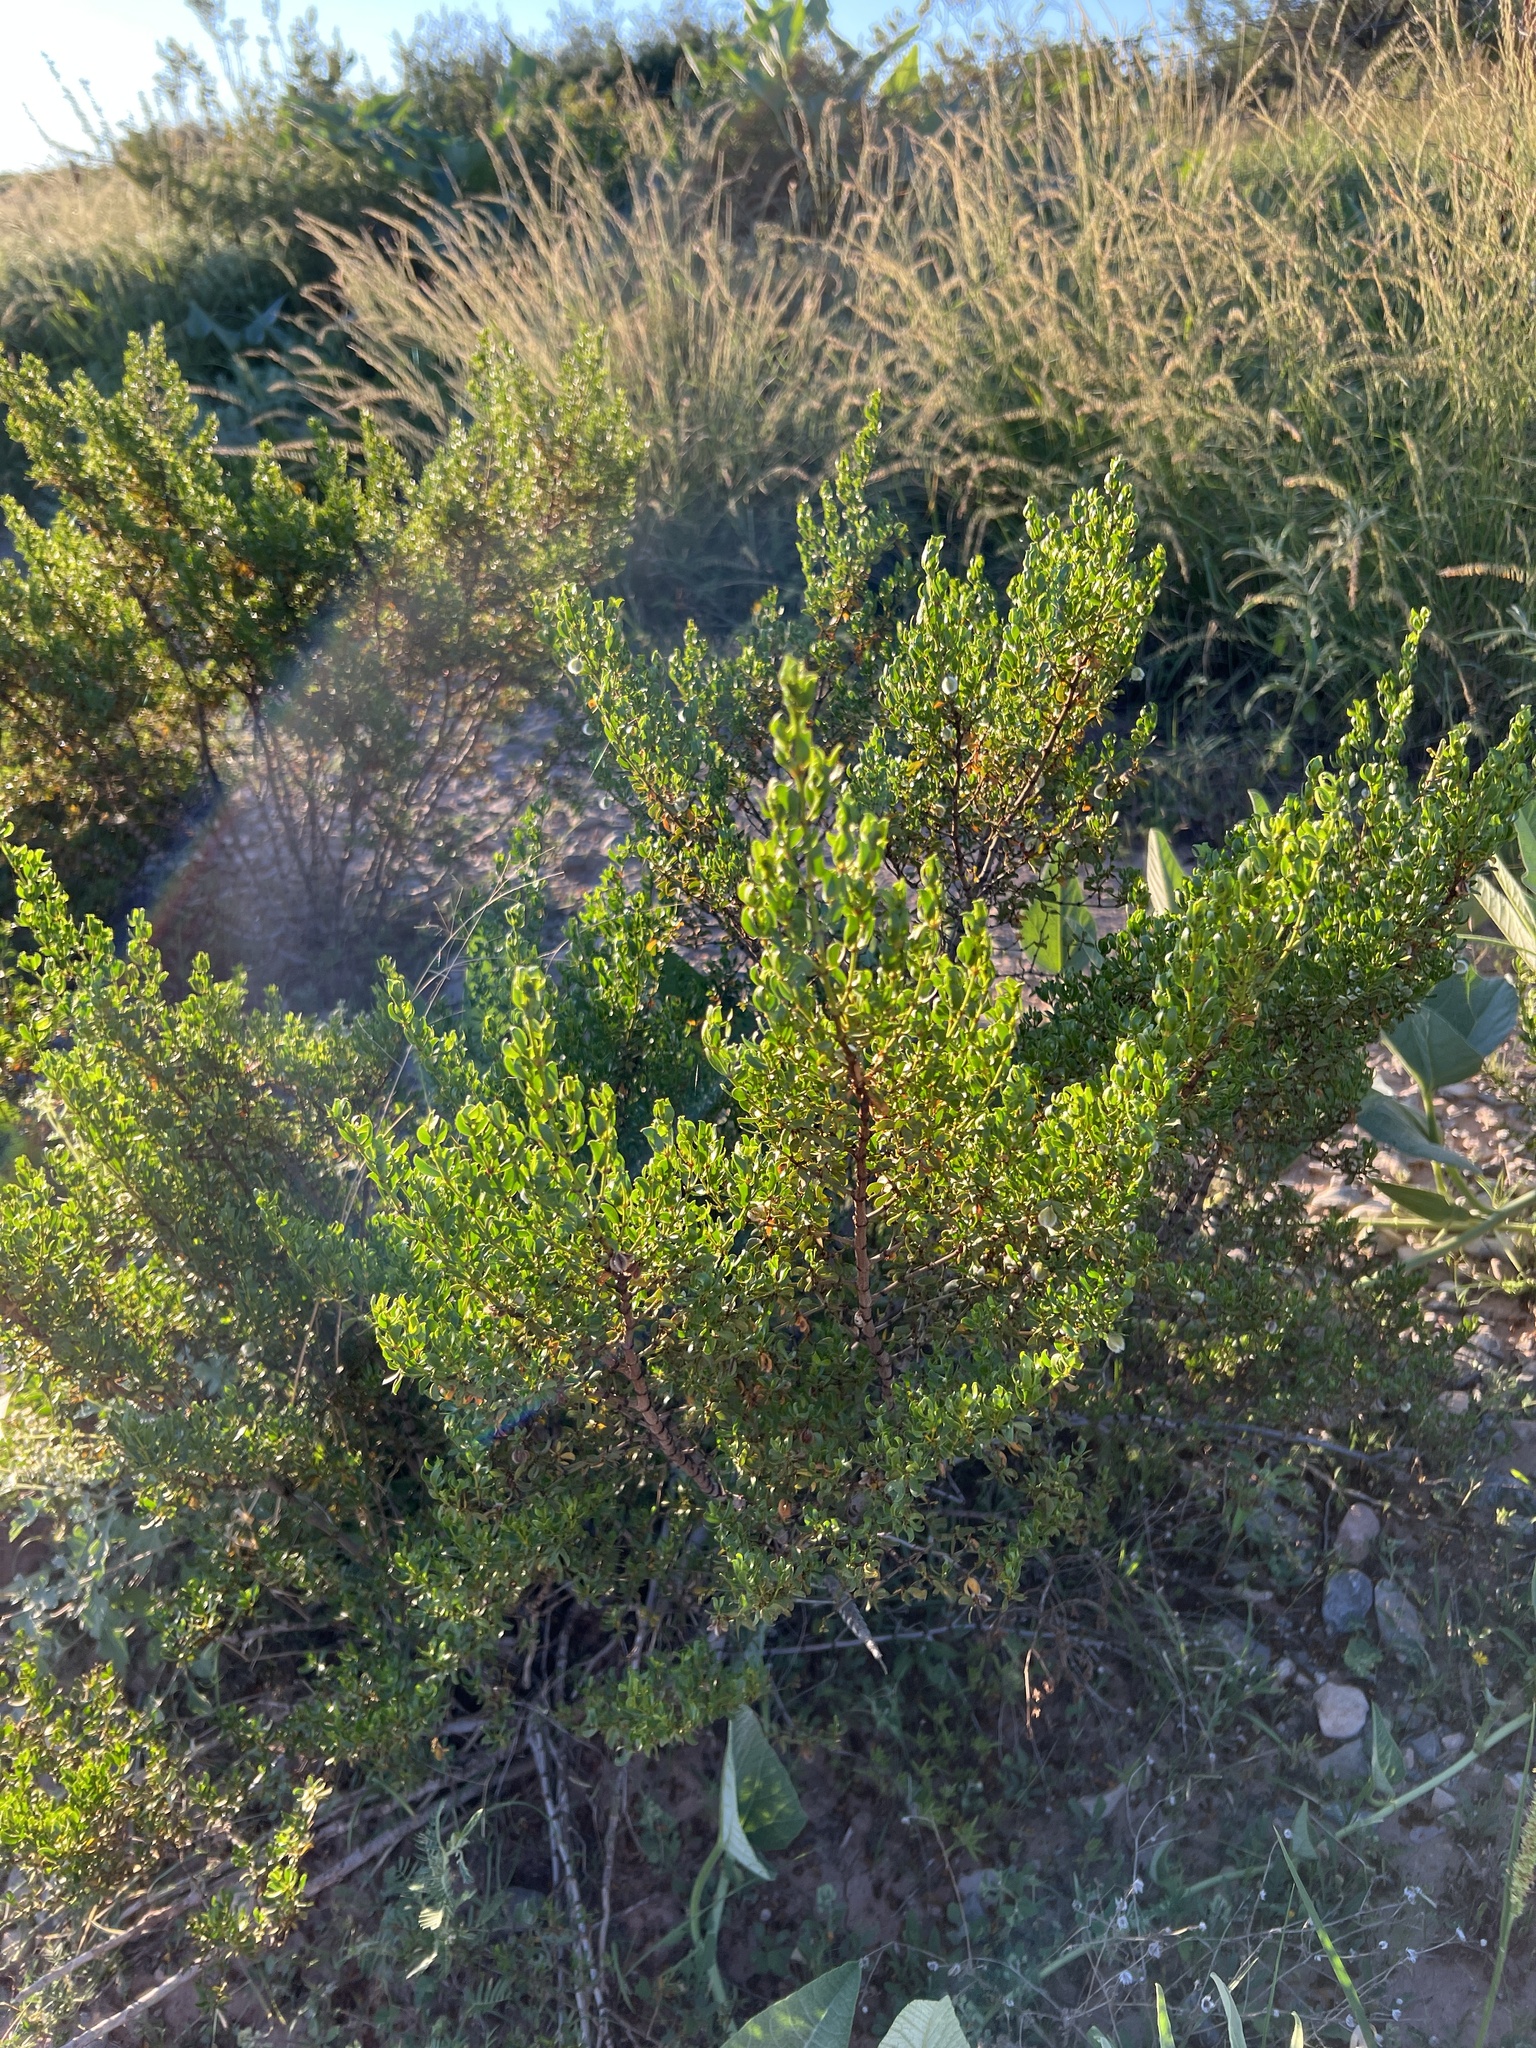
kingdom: Plantae
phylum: Tracheophyta
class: Magnoliopsida
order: Zygophyllales
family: Zygophyllaceae
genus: Larrea
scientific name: Larrea tridentata
